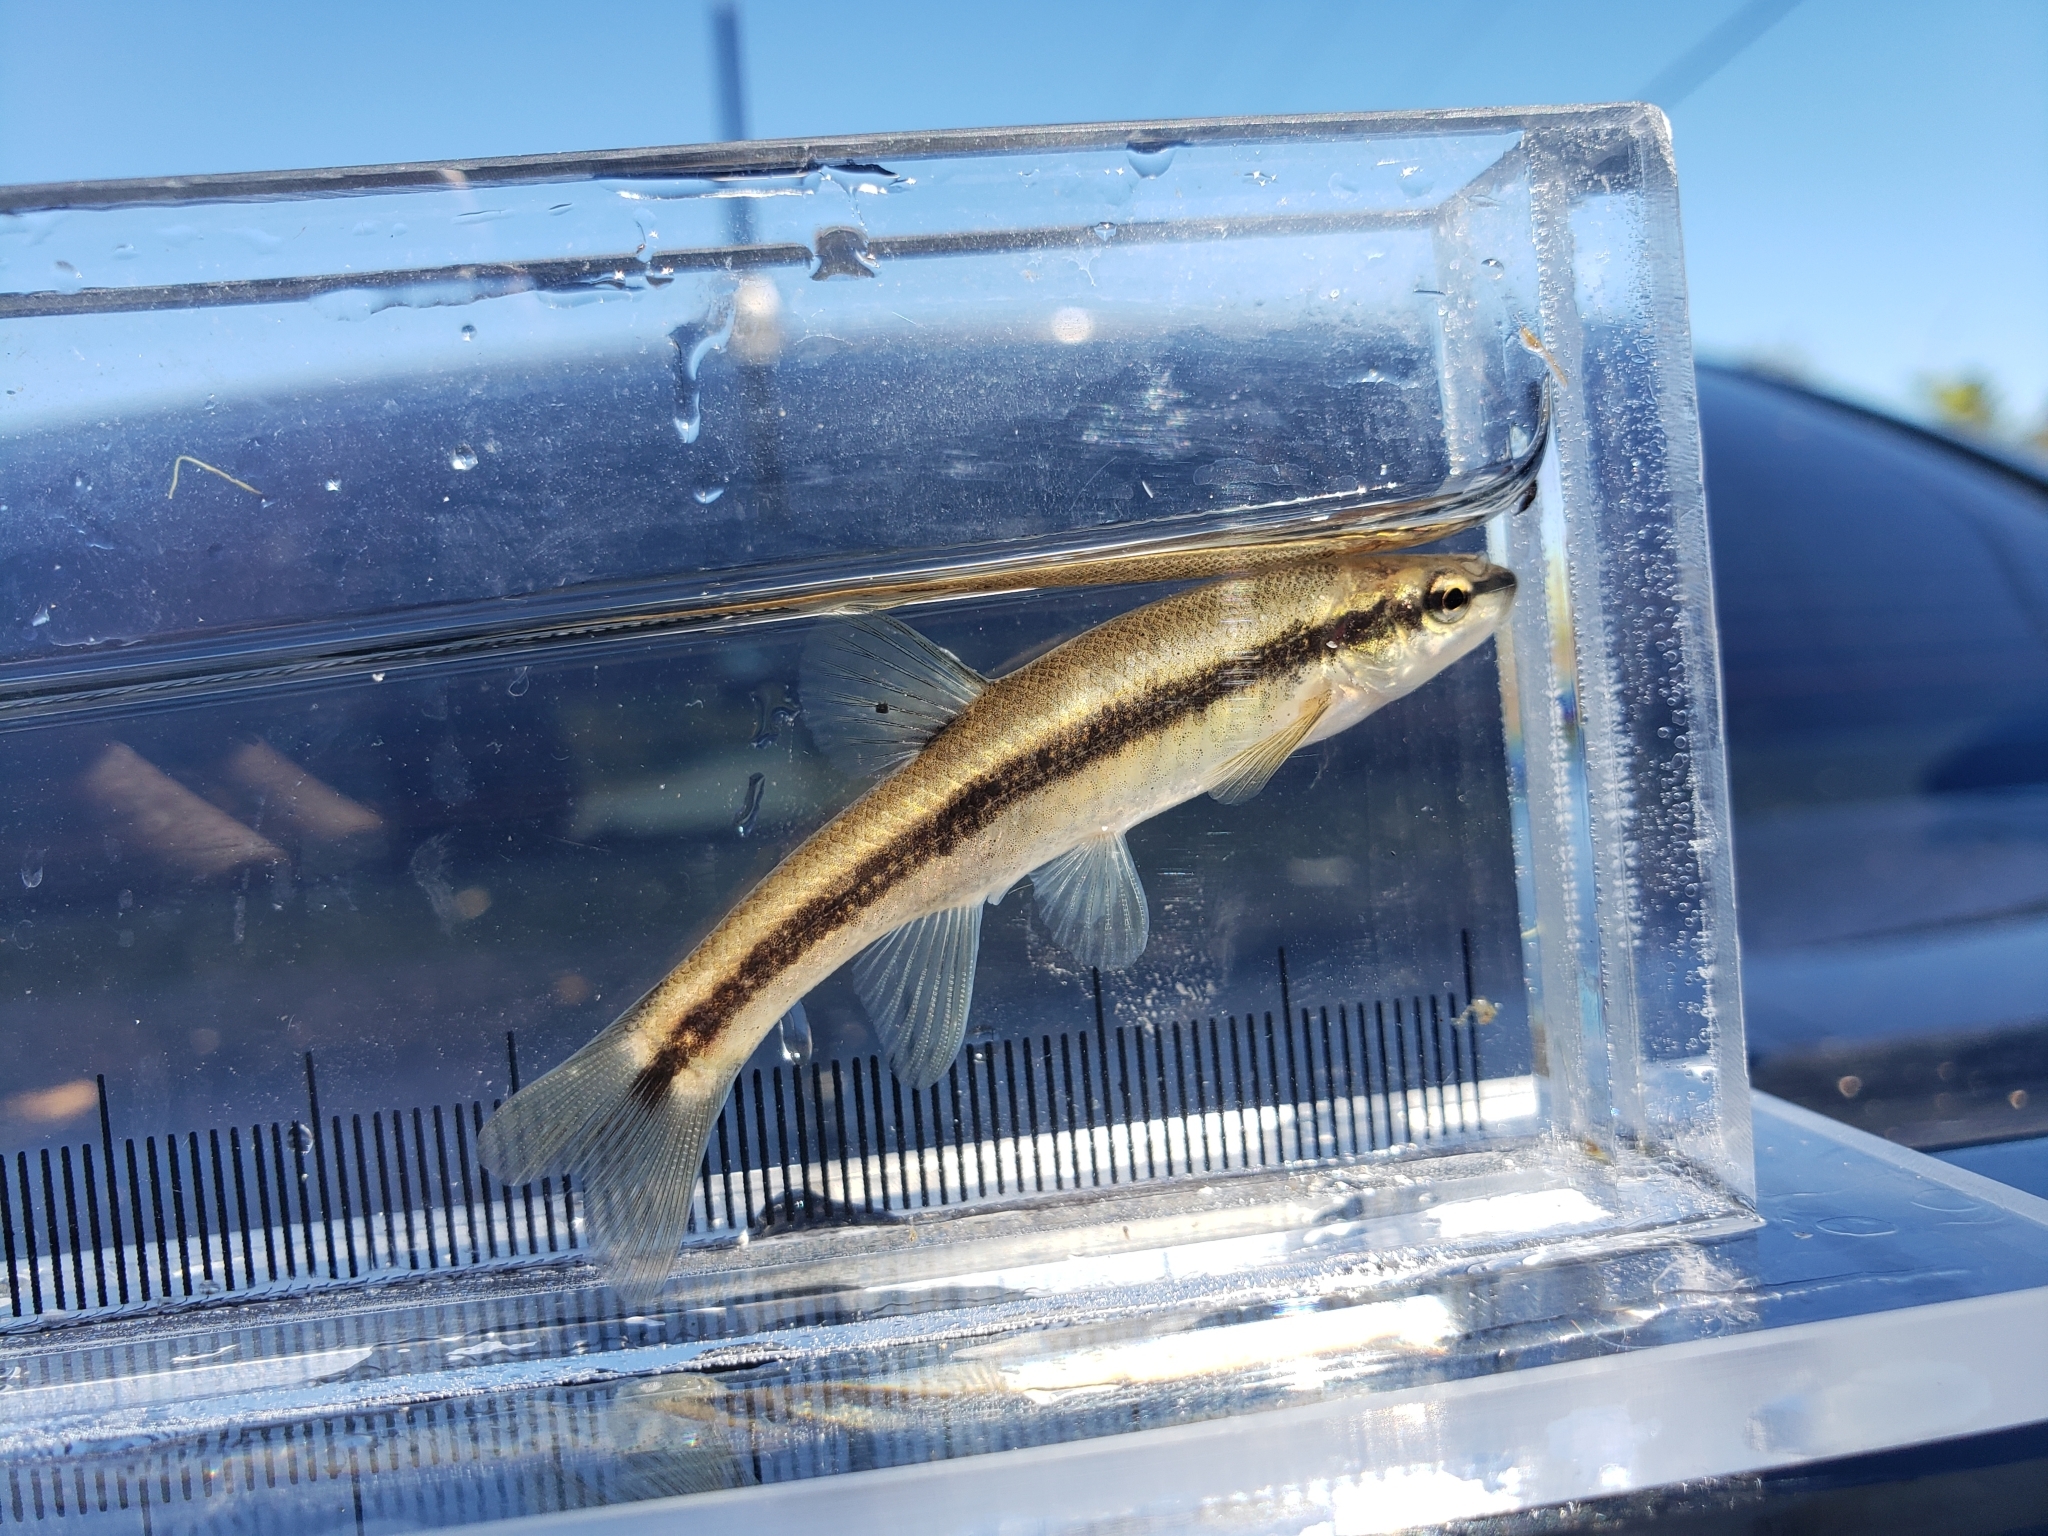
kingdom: Animalia
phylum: Chordata
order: Cypriniformes
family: Cyprinidae
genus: Rhinichthys
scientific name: Rhinichthys obtusus
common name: Western blacknose dace
